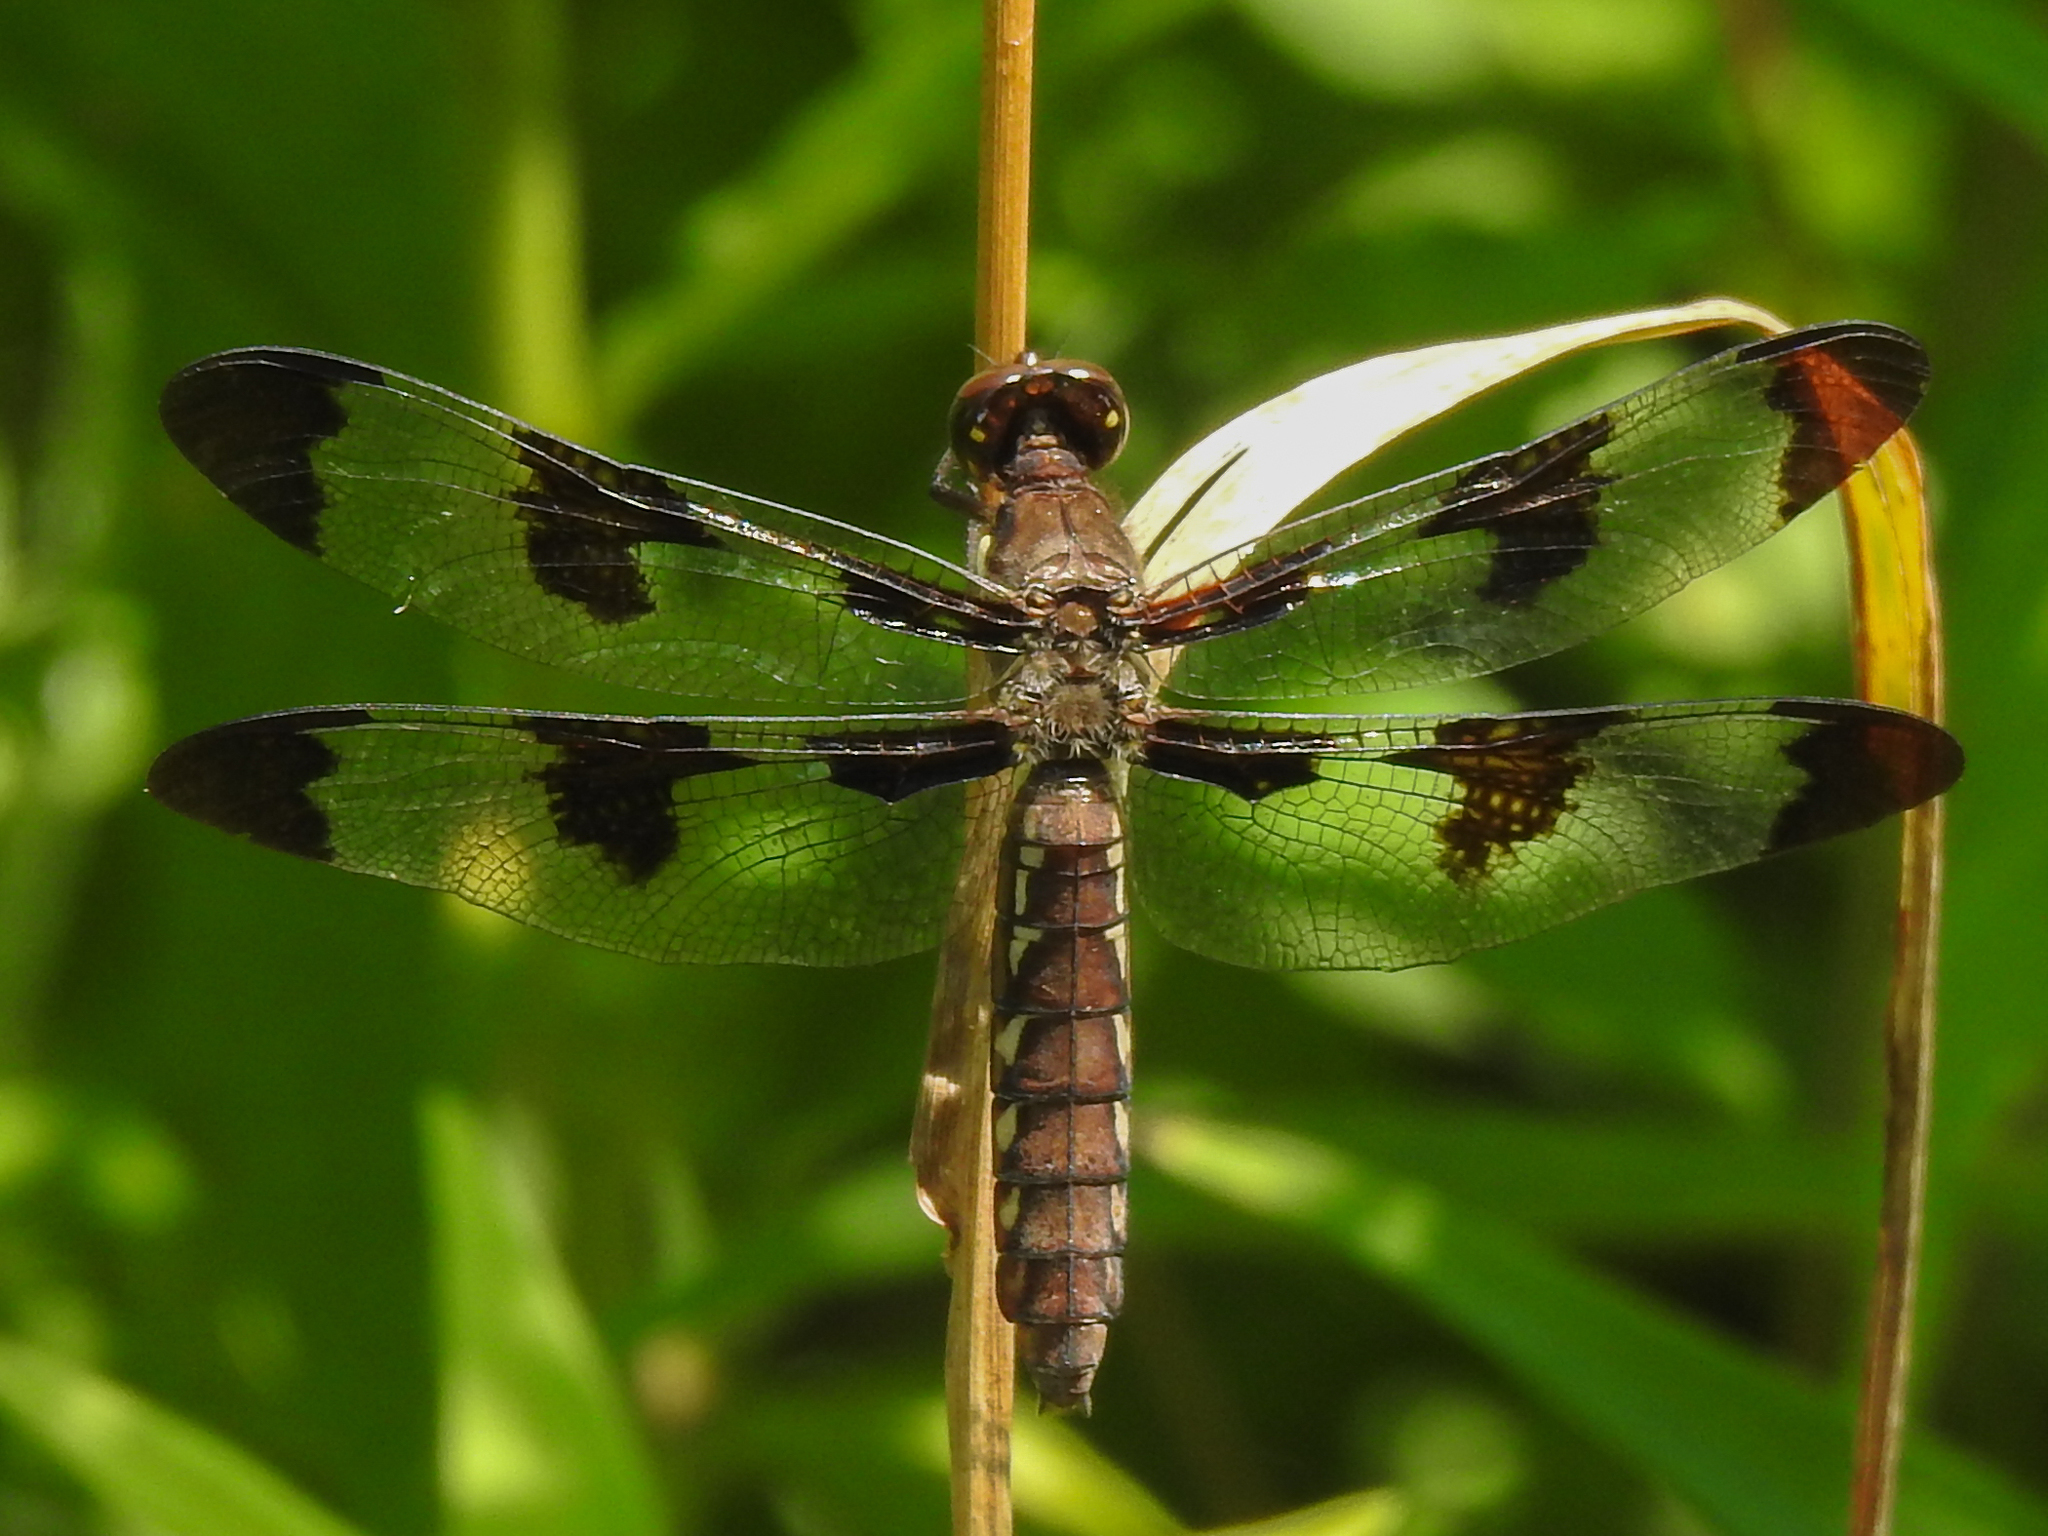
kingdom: Animalia
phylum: Arthropoda
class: Insecta
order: Odonata
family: Libellulidae
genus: Plathemis
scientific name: Plathemis lydia
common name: Common whitetail
